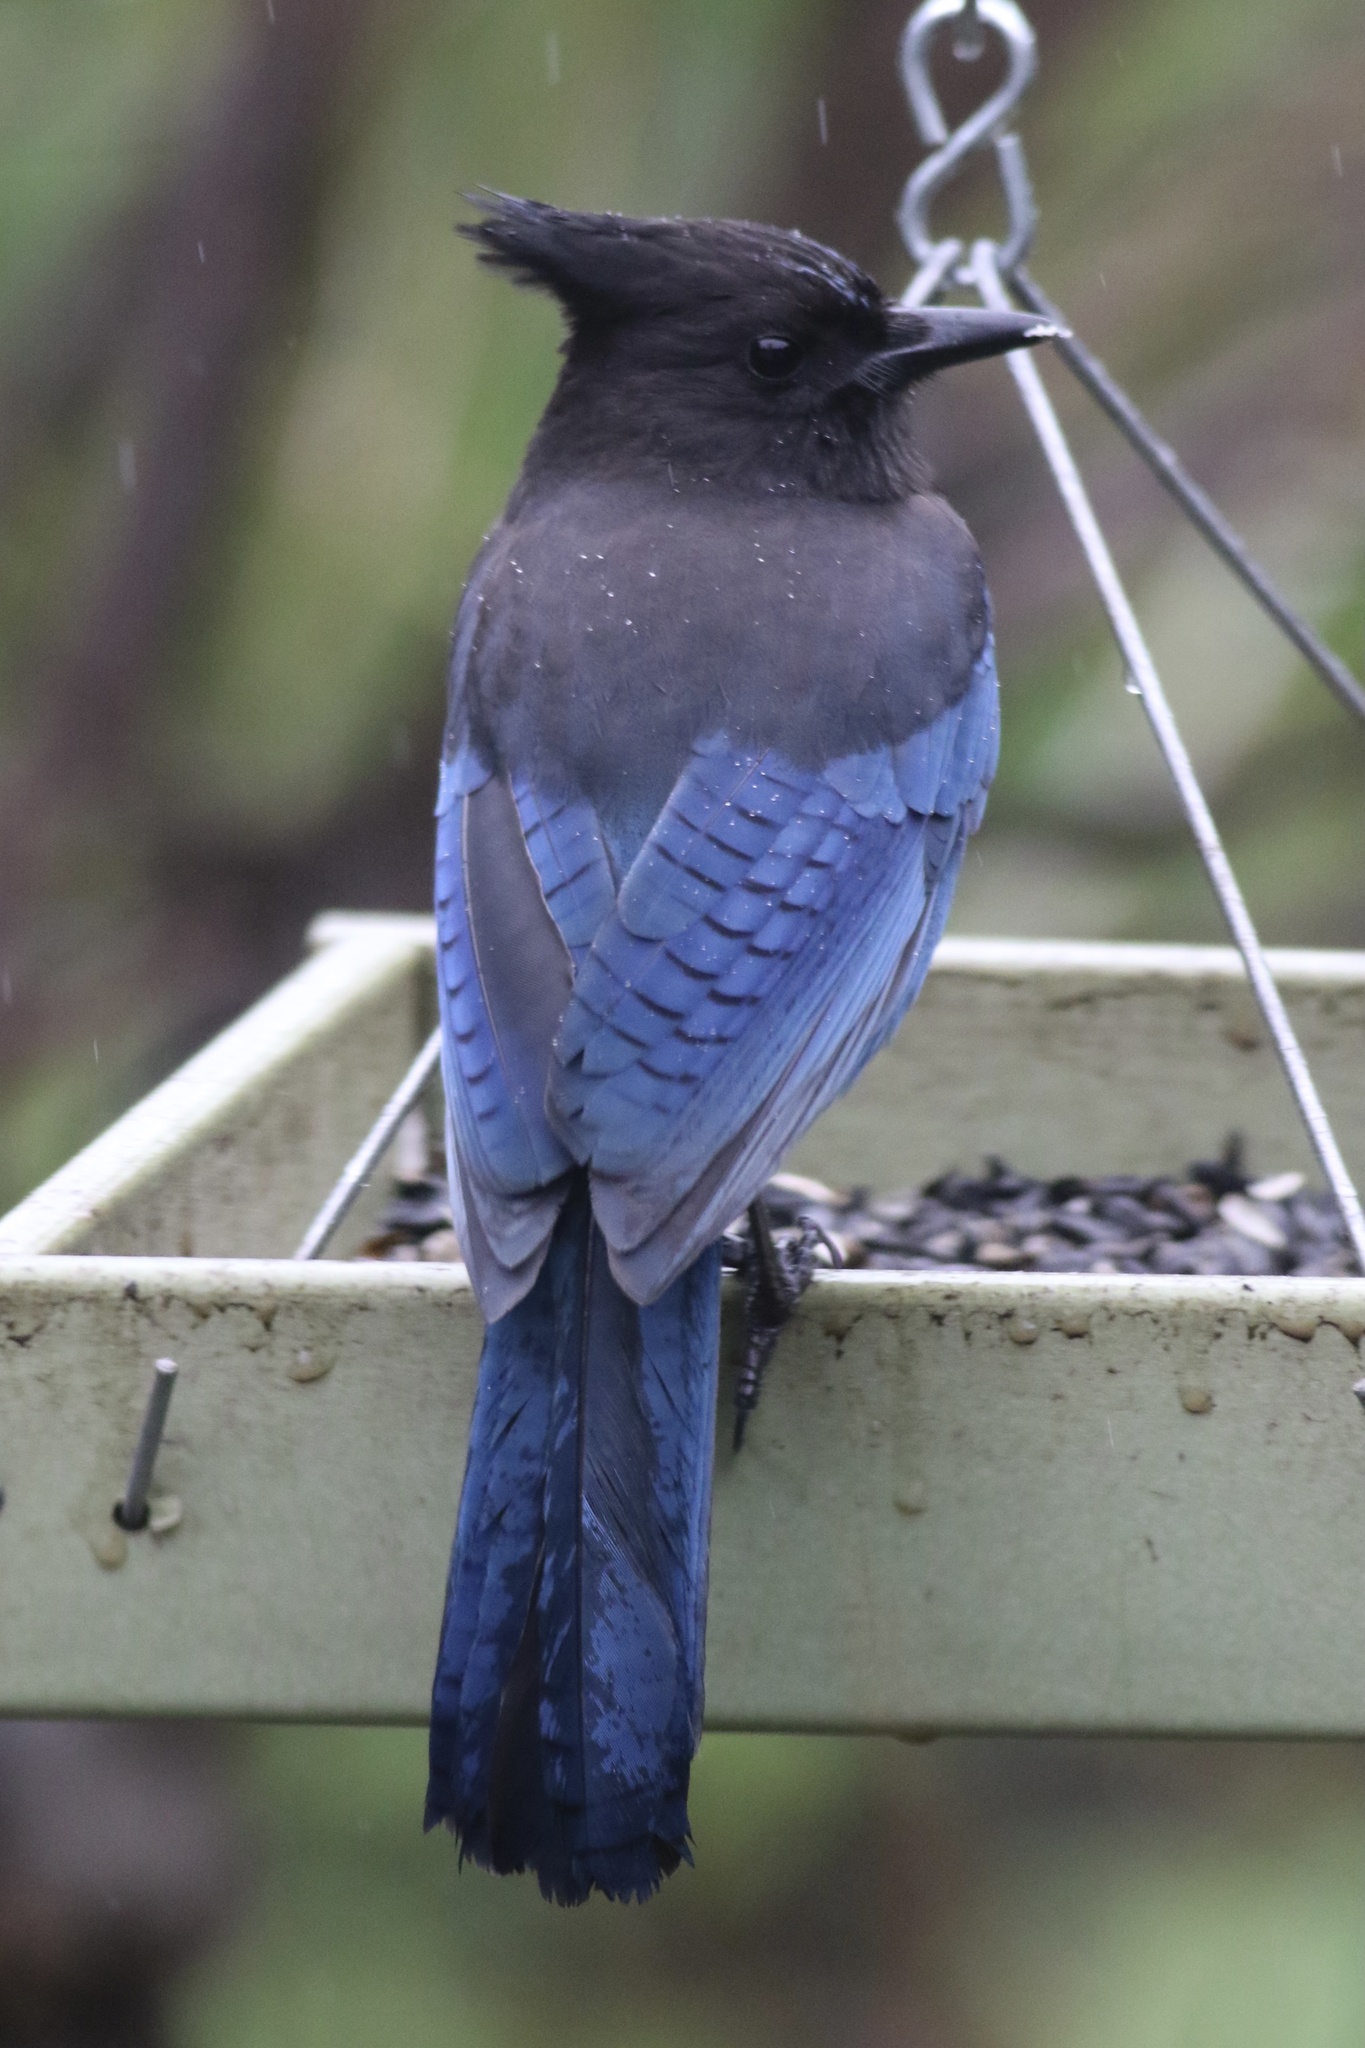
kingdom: Animalia
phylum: Chordata
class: Aves
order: Passeriformes
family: Corvidae
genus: Cyanocitta
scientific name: Cyanocitta stelleri
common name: Steller's jay
